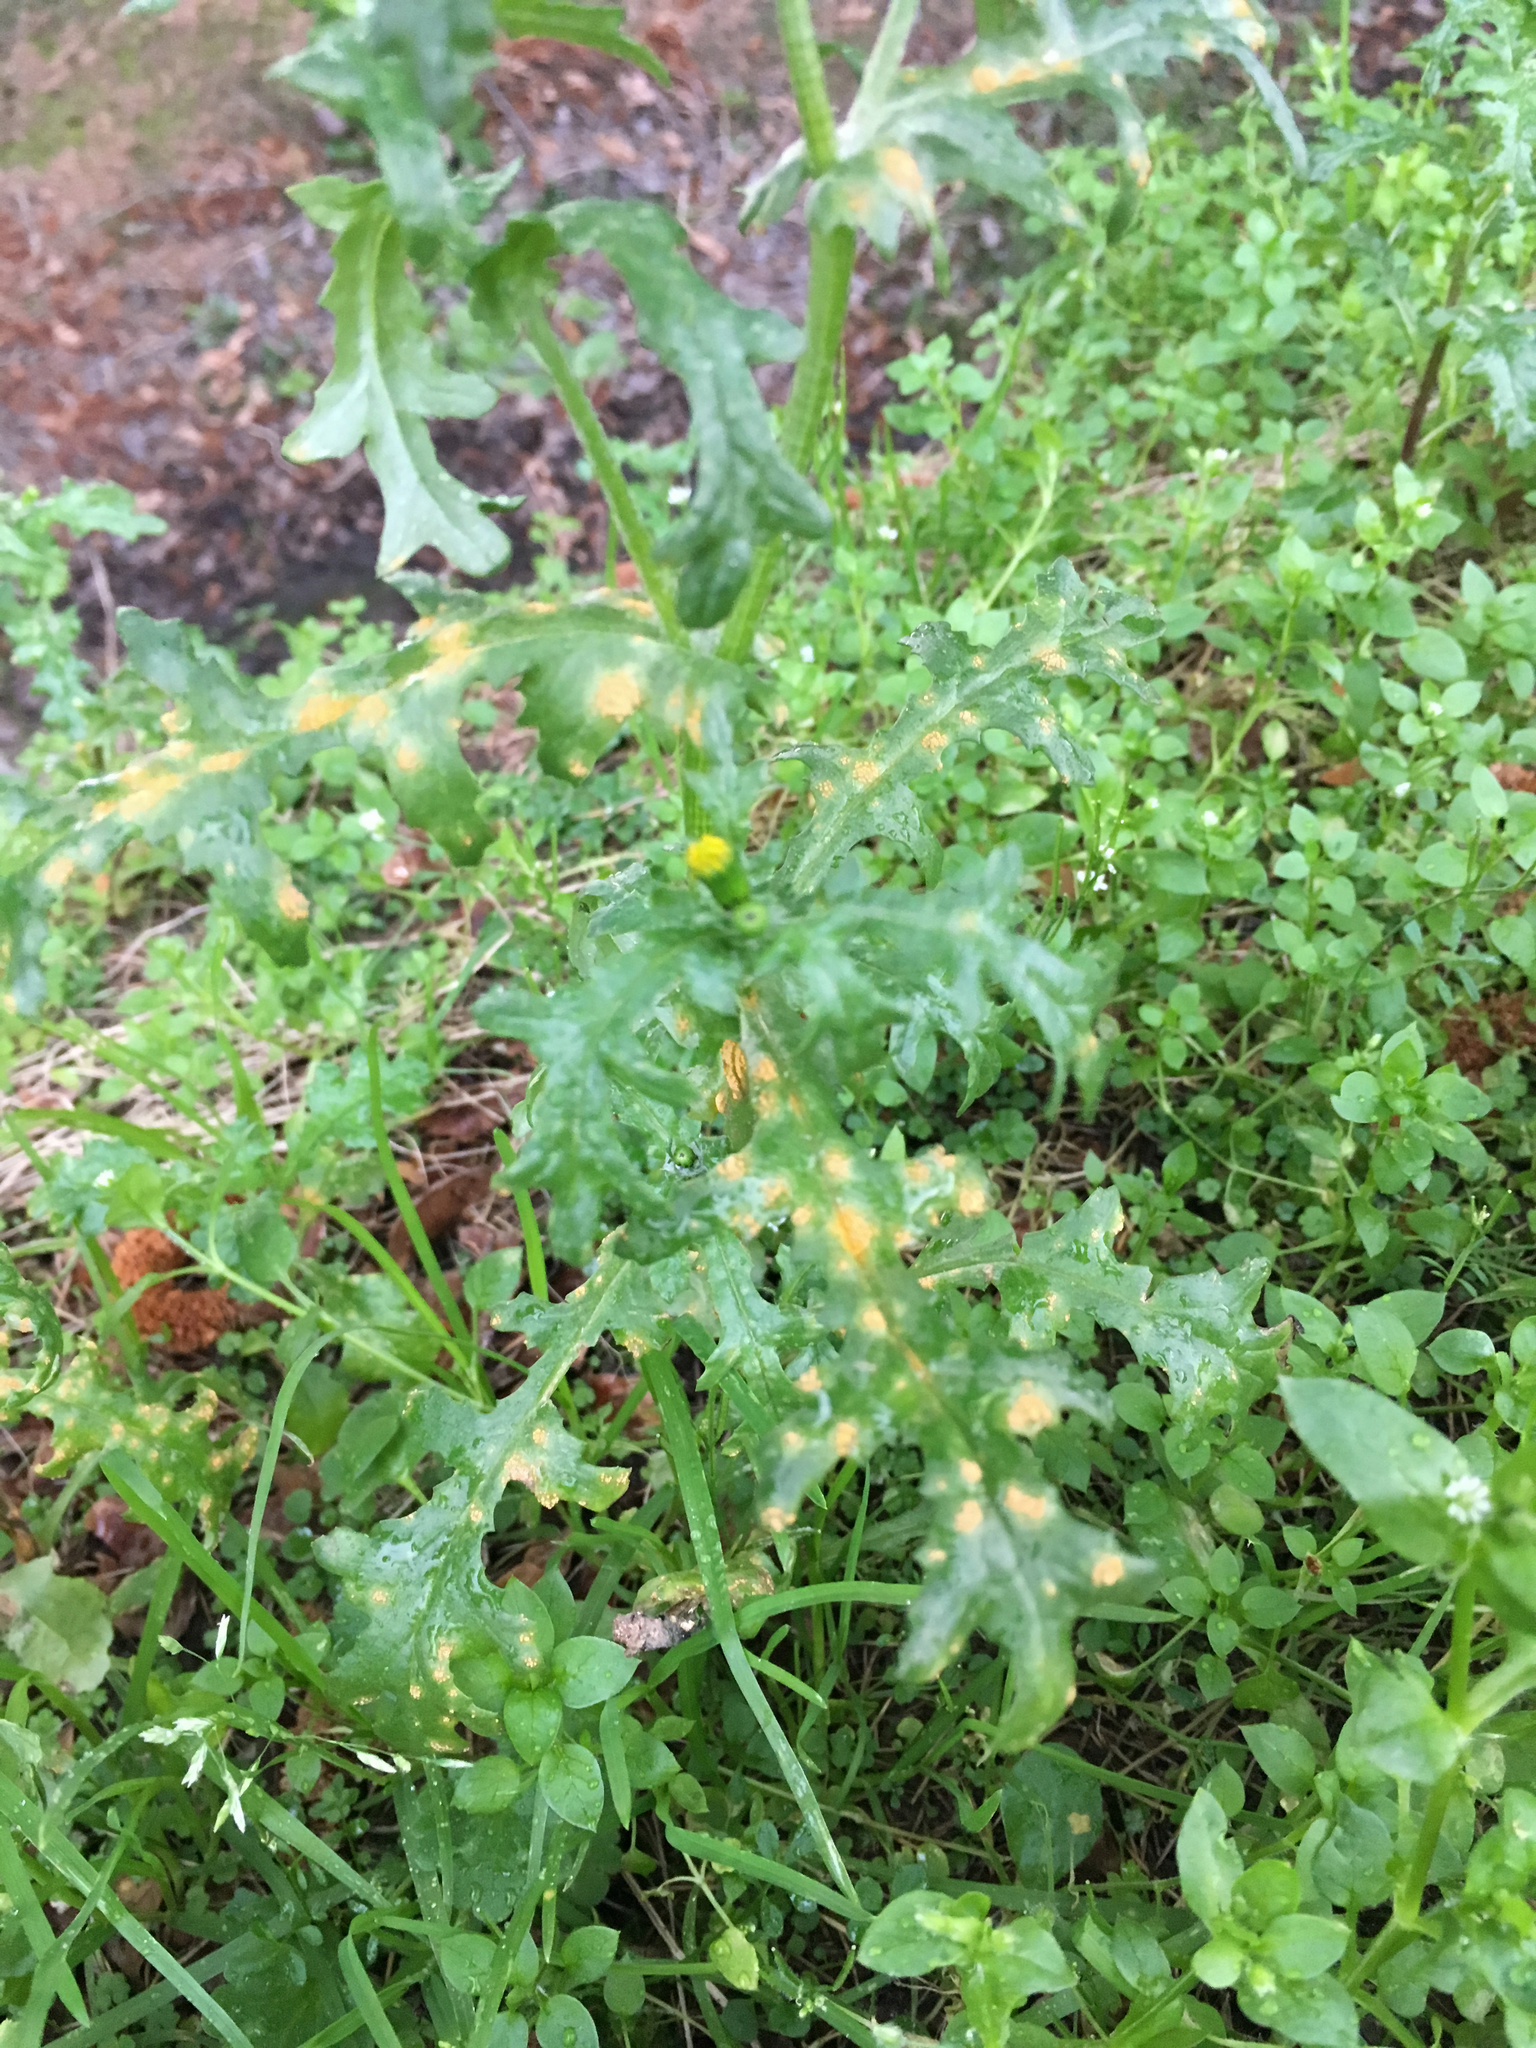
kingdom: Fungi
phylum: Basidiomycota
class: Pucciniomycetes
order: Pucciniales
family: Pucciniaceae
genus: Puccinia
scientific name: Puccinia lagenophorae
